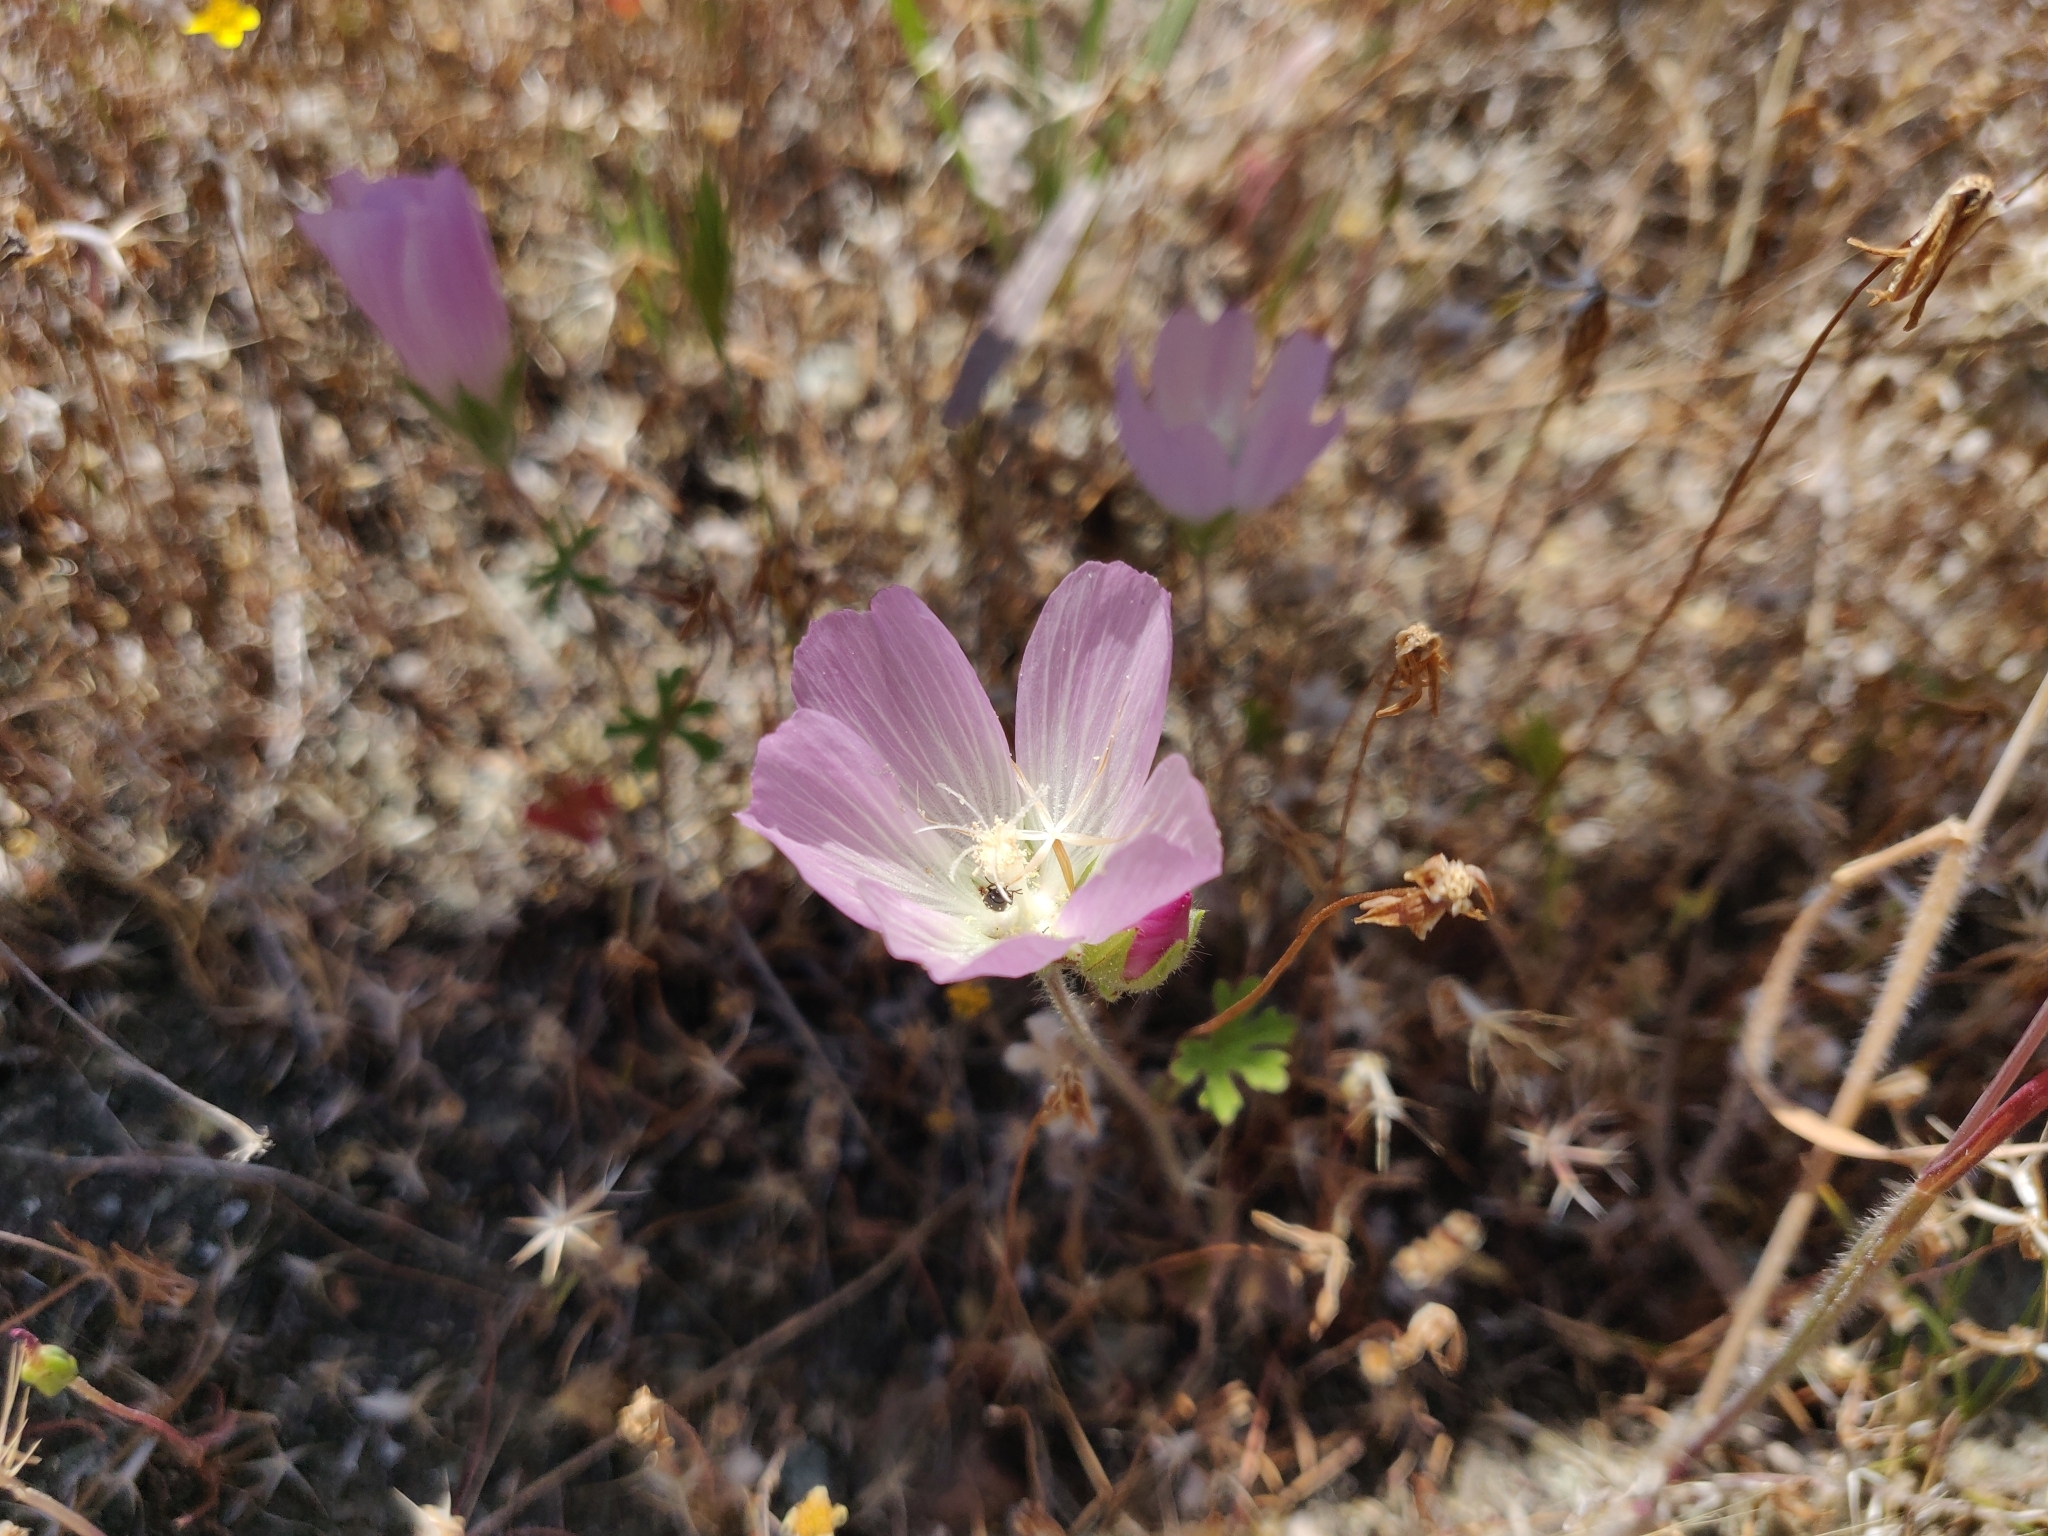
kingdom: Plantae
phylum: Tracheophyta
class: Magnoliopsida
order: Malvales
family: Malvaceae
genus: Sidalcea
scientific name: Sidalcea diploscypha
